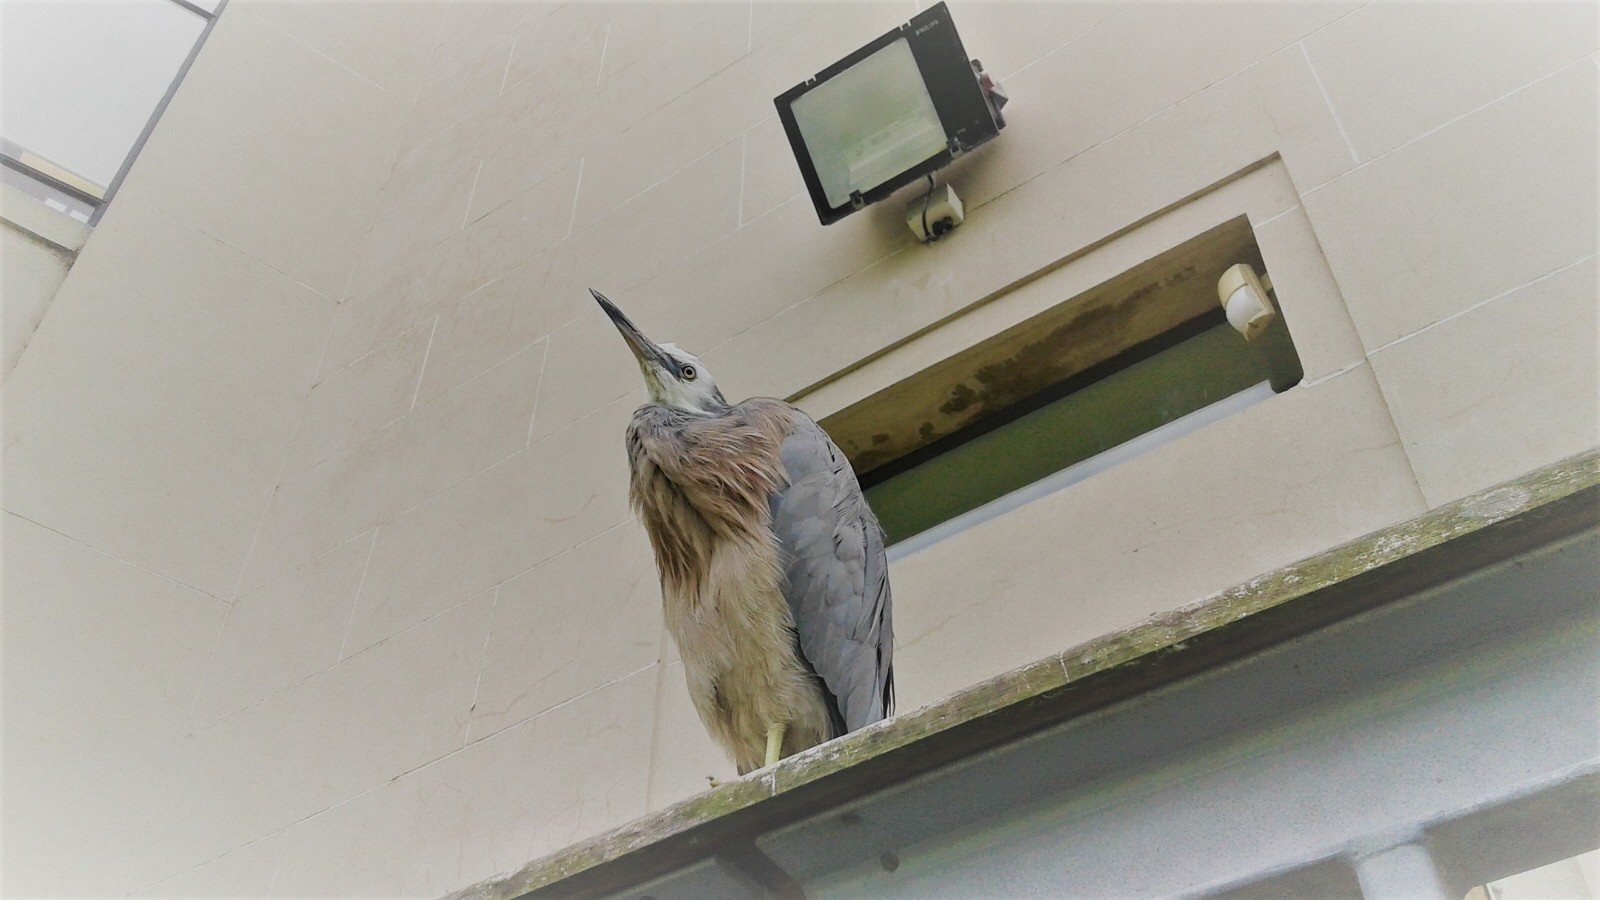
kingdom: Animalia
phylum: Chordata
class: Aves
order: Pelecaniformes
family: Ardeidae
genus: Egretta
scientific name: Egretta novaehollandiae
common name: White-faced heron
